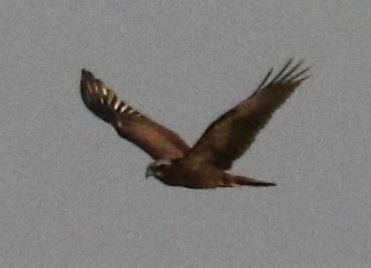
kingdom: Animalia
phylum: Chordata
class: Aves
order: Accipitriformes
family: Accipitridae
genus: Circus
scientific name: Circus aeruginosus
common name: Western marsh harrier
